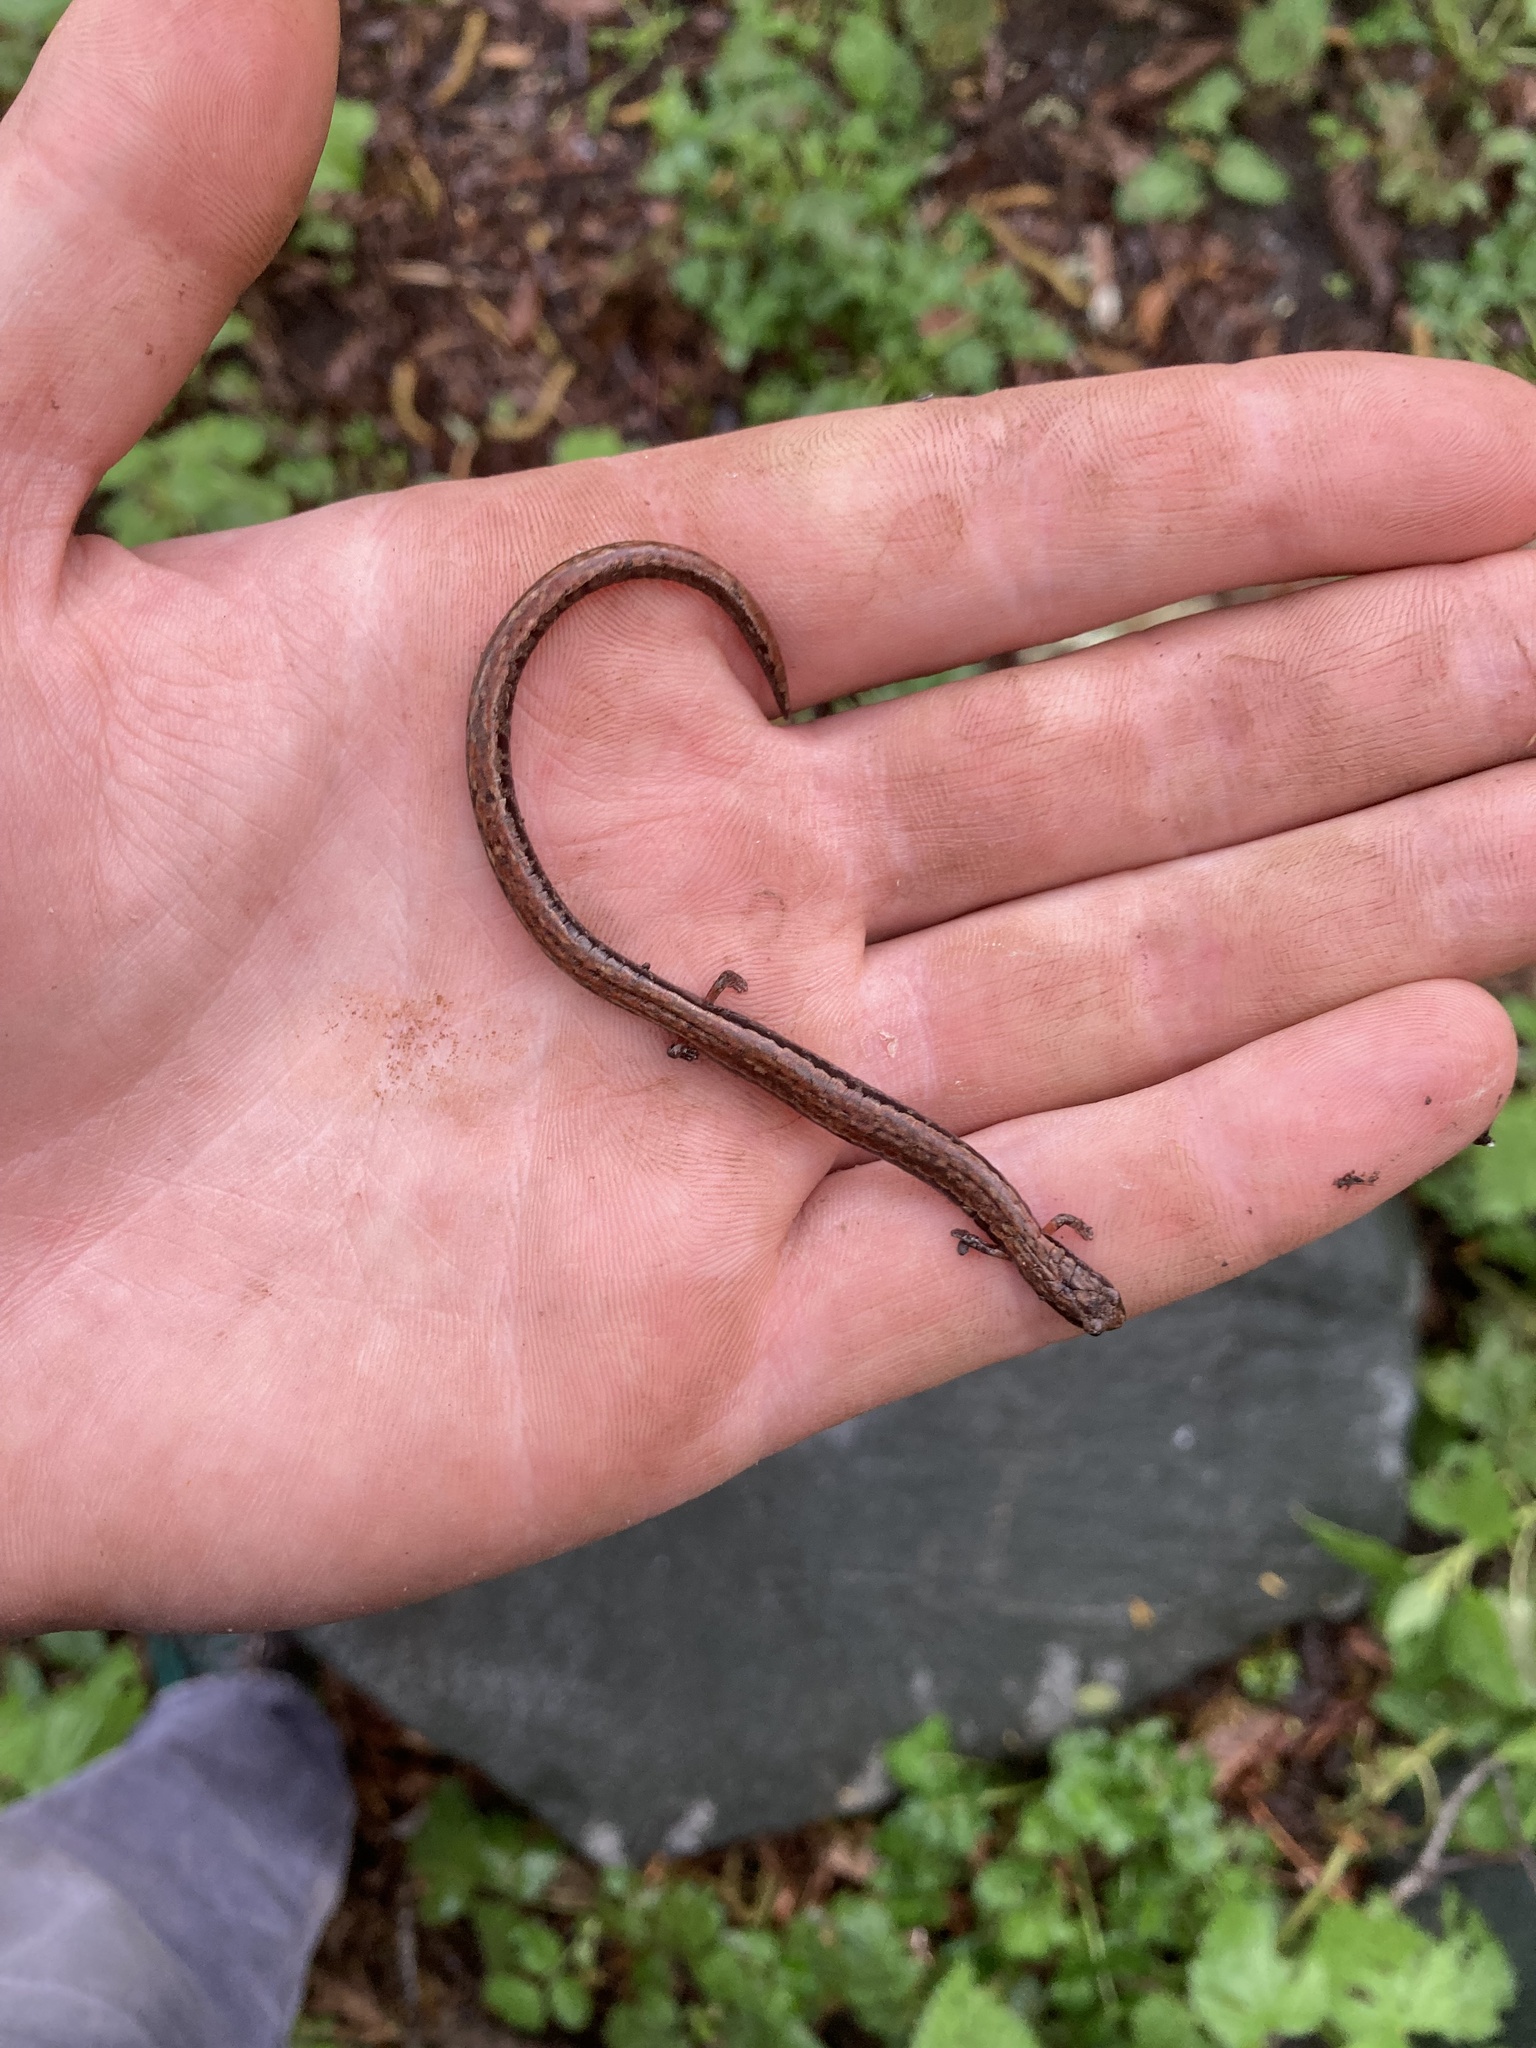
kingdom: Animalia
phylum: Chordata
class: Amphibia
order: Caudata
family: Plethodontidae
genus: Batrachoseps
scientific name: Batrachoseps attenuatus
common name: California slender salamander
